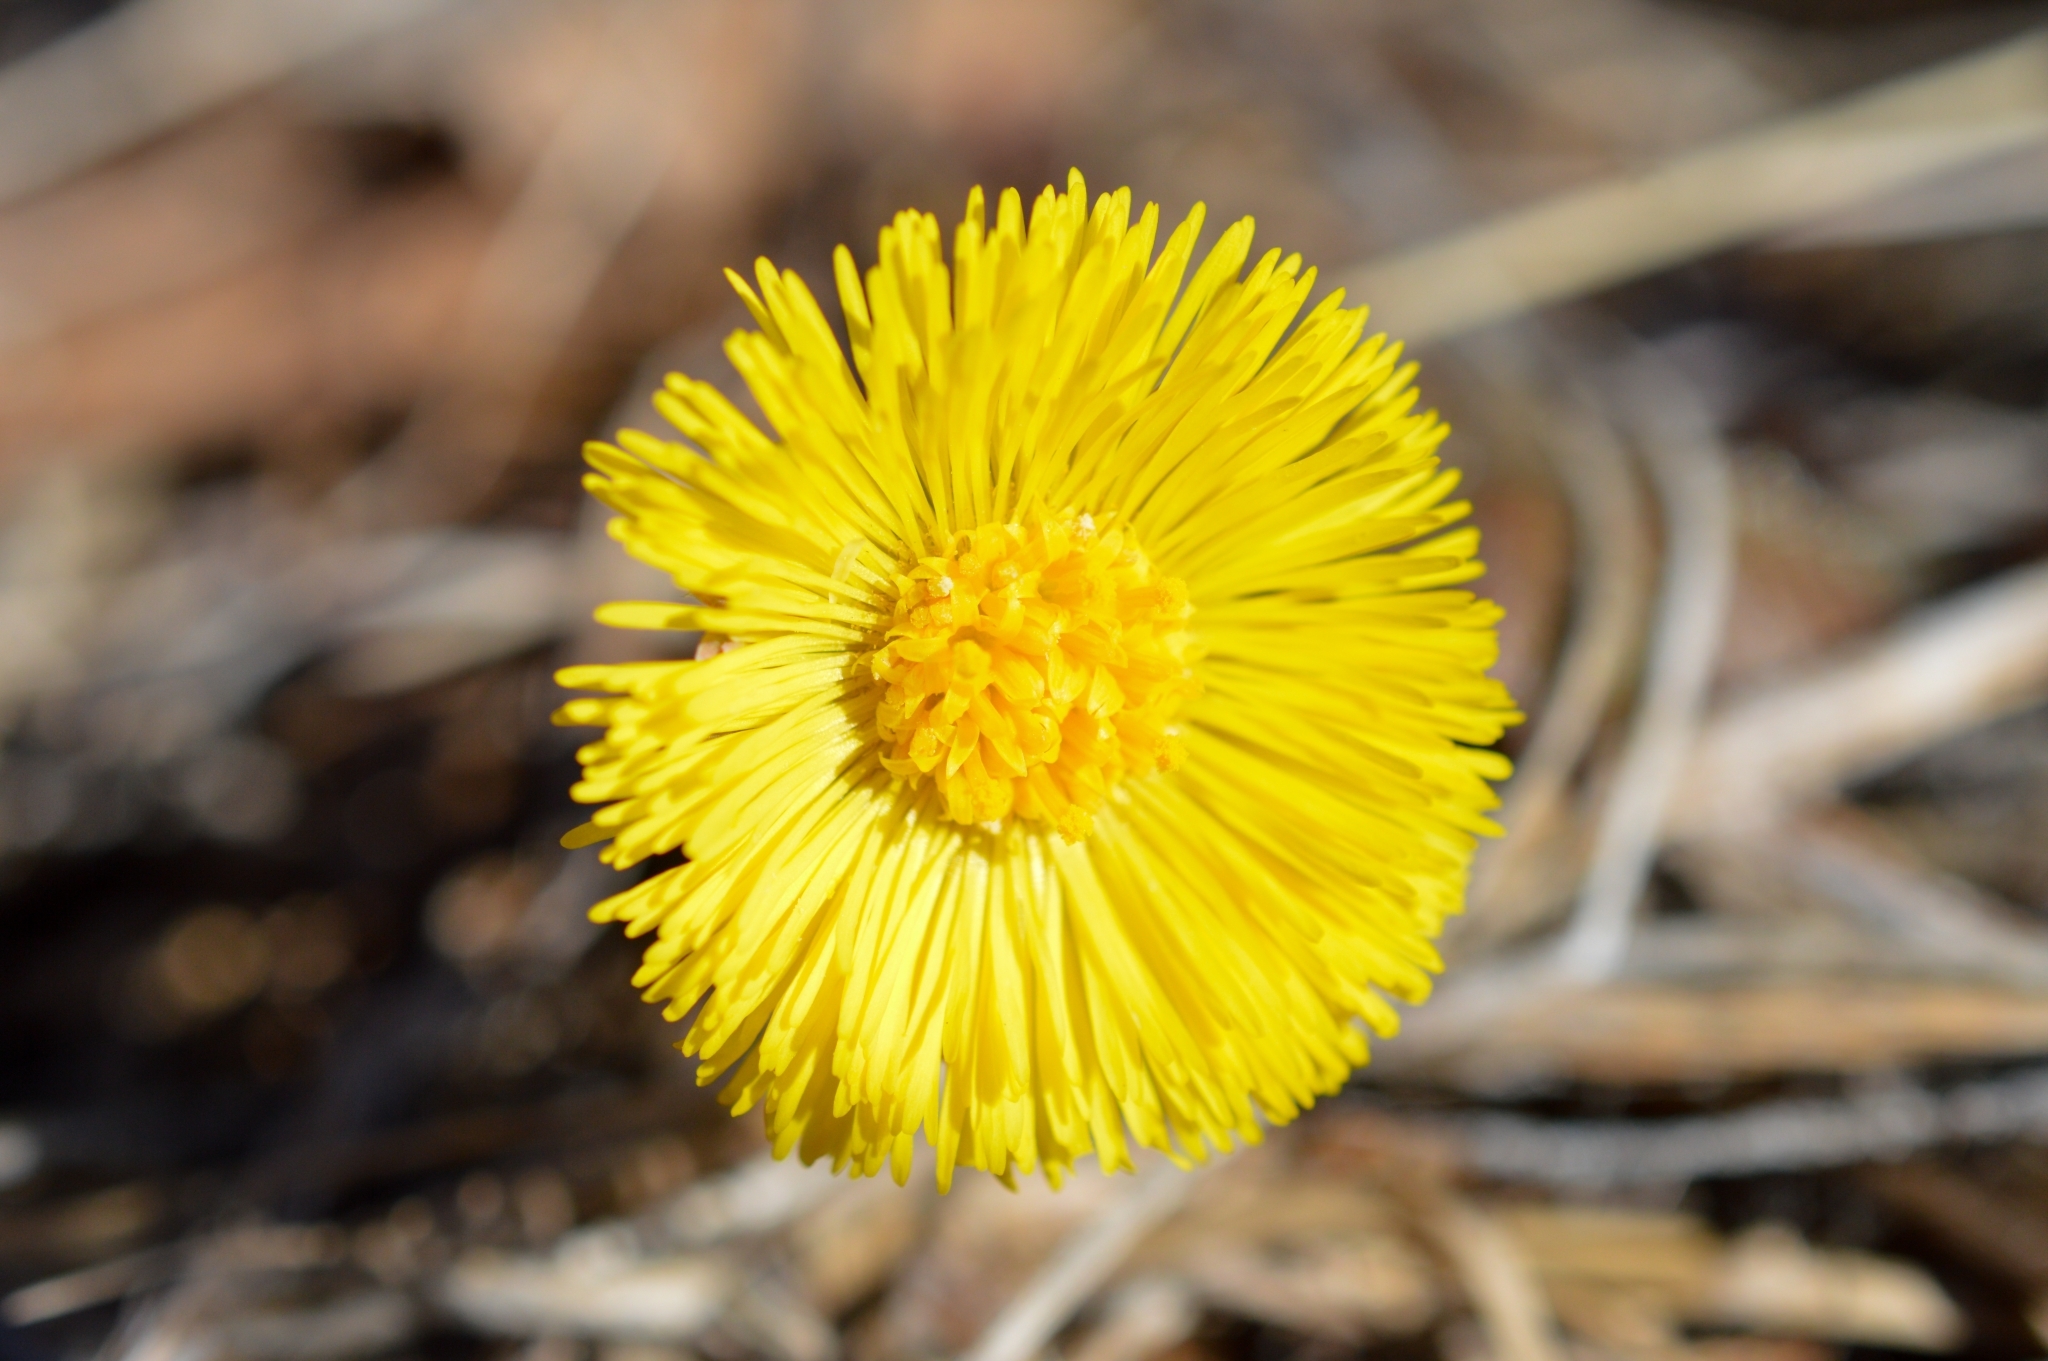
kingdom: Plantae
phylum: Tracheophyta
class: Magnoliopsida
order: Asterales
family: Asteraceae
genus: Tussilago
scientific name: Tussilago farfara
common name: Coltsfoot
